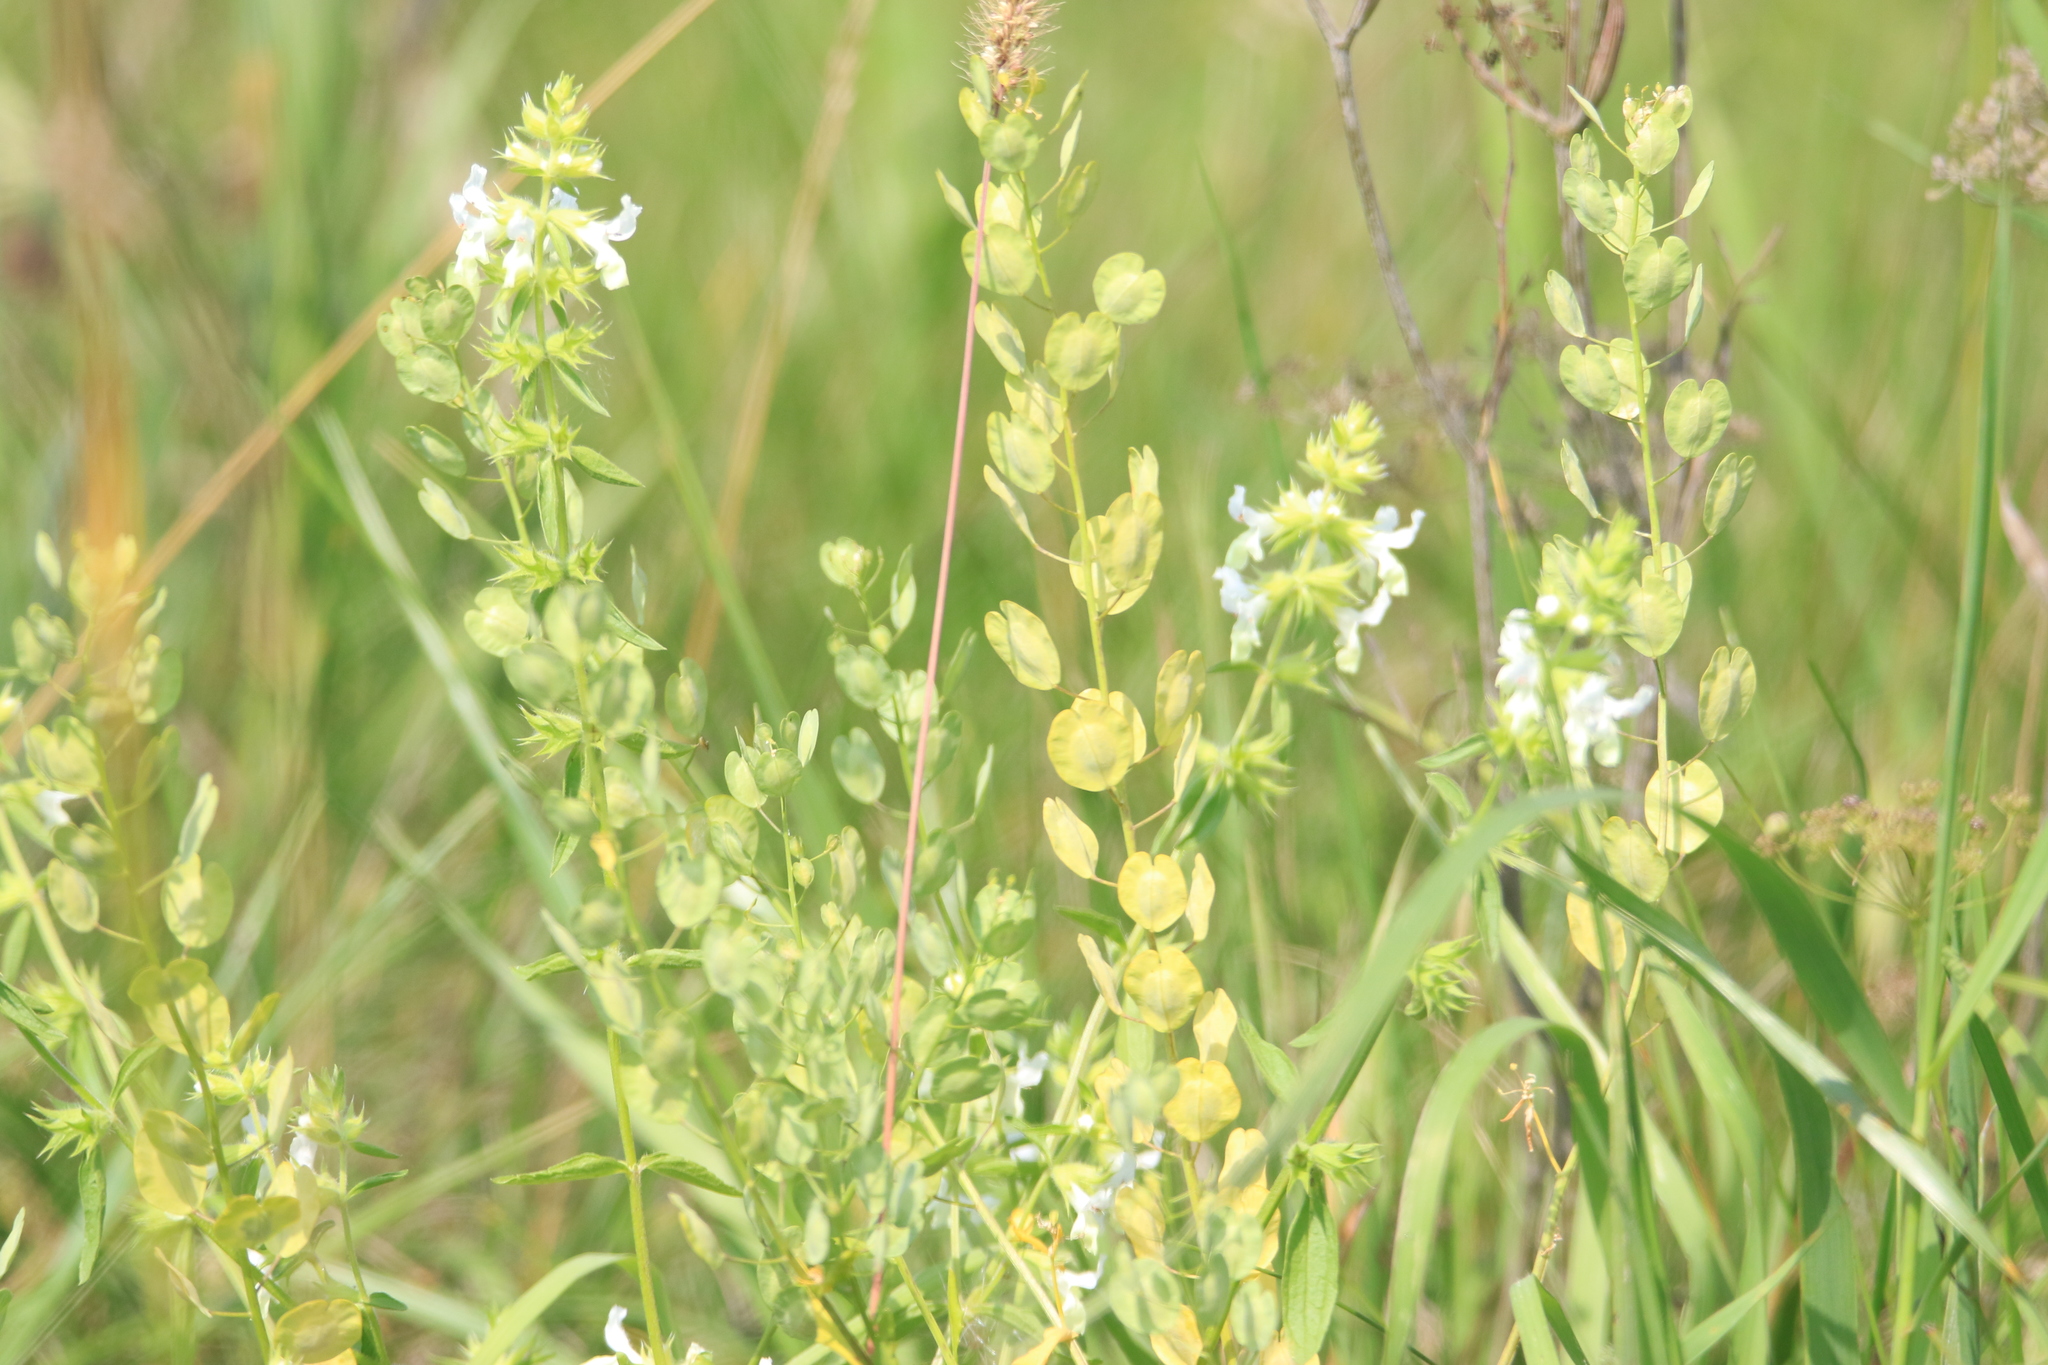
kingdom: Plantae
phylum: Tracheophyta
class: Magnoliopsida
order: Brassicales
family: Brassicaceae
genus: Thlaspi
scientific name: Thlaspi arvense
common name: Field pennycress
